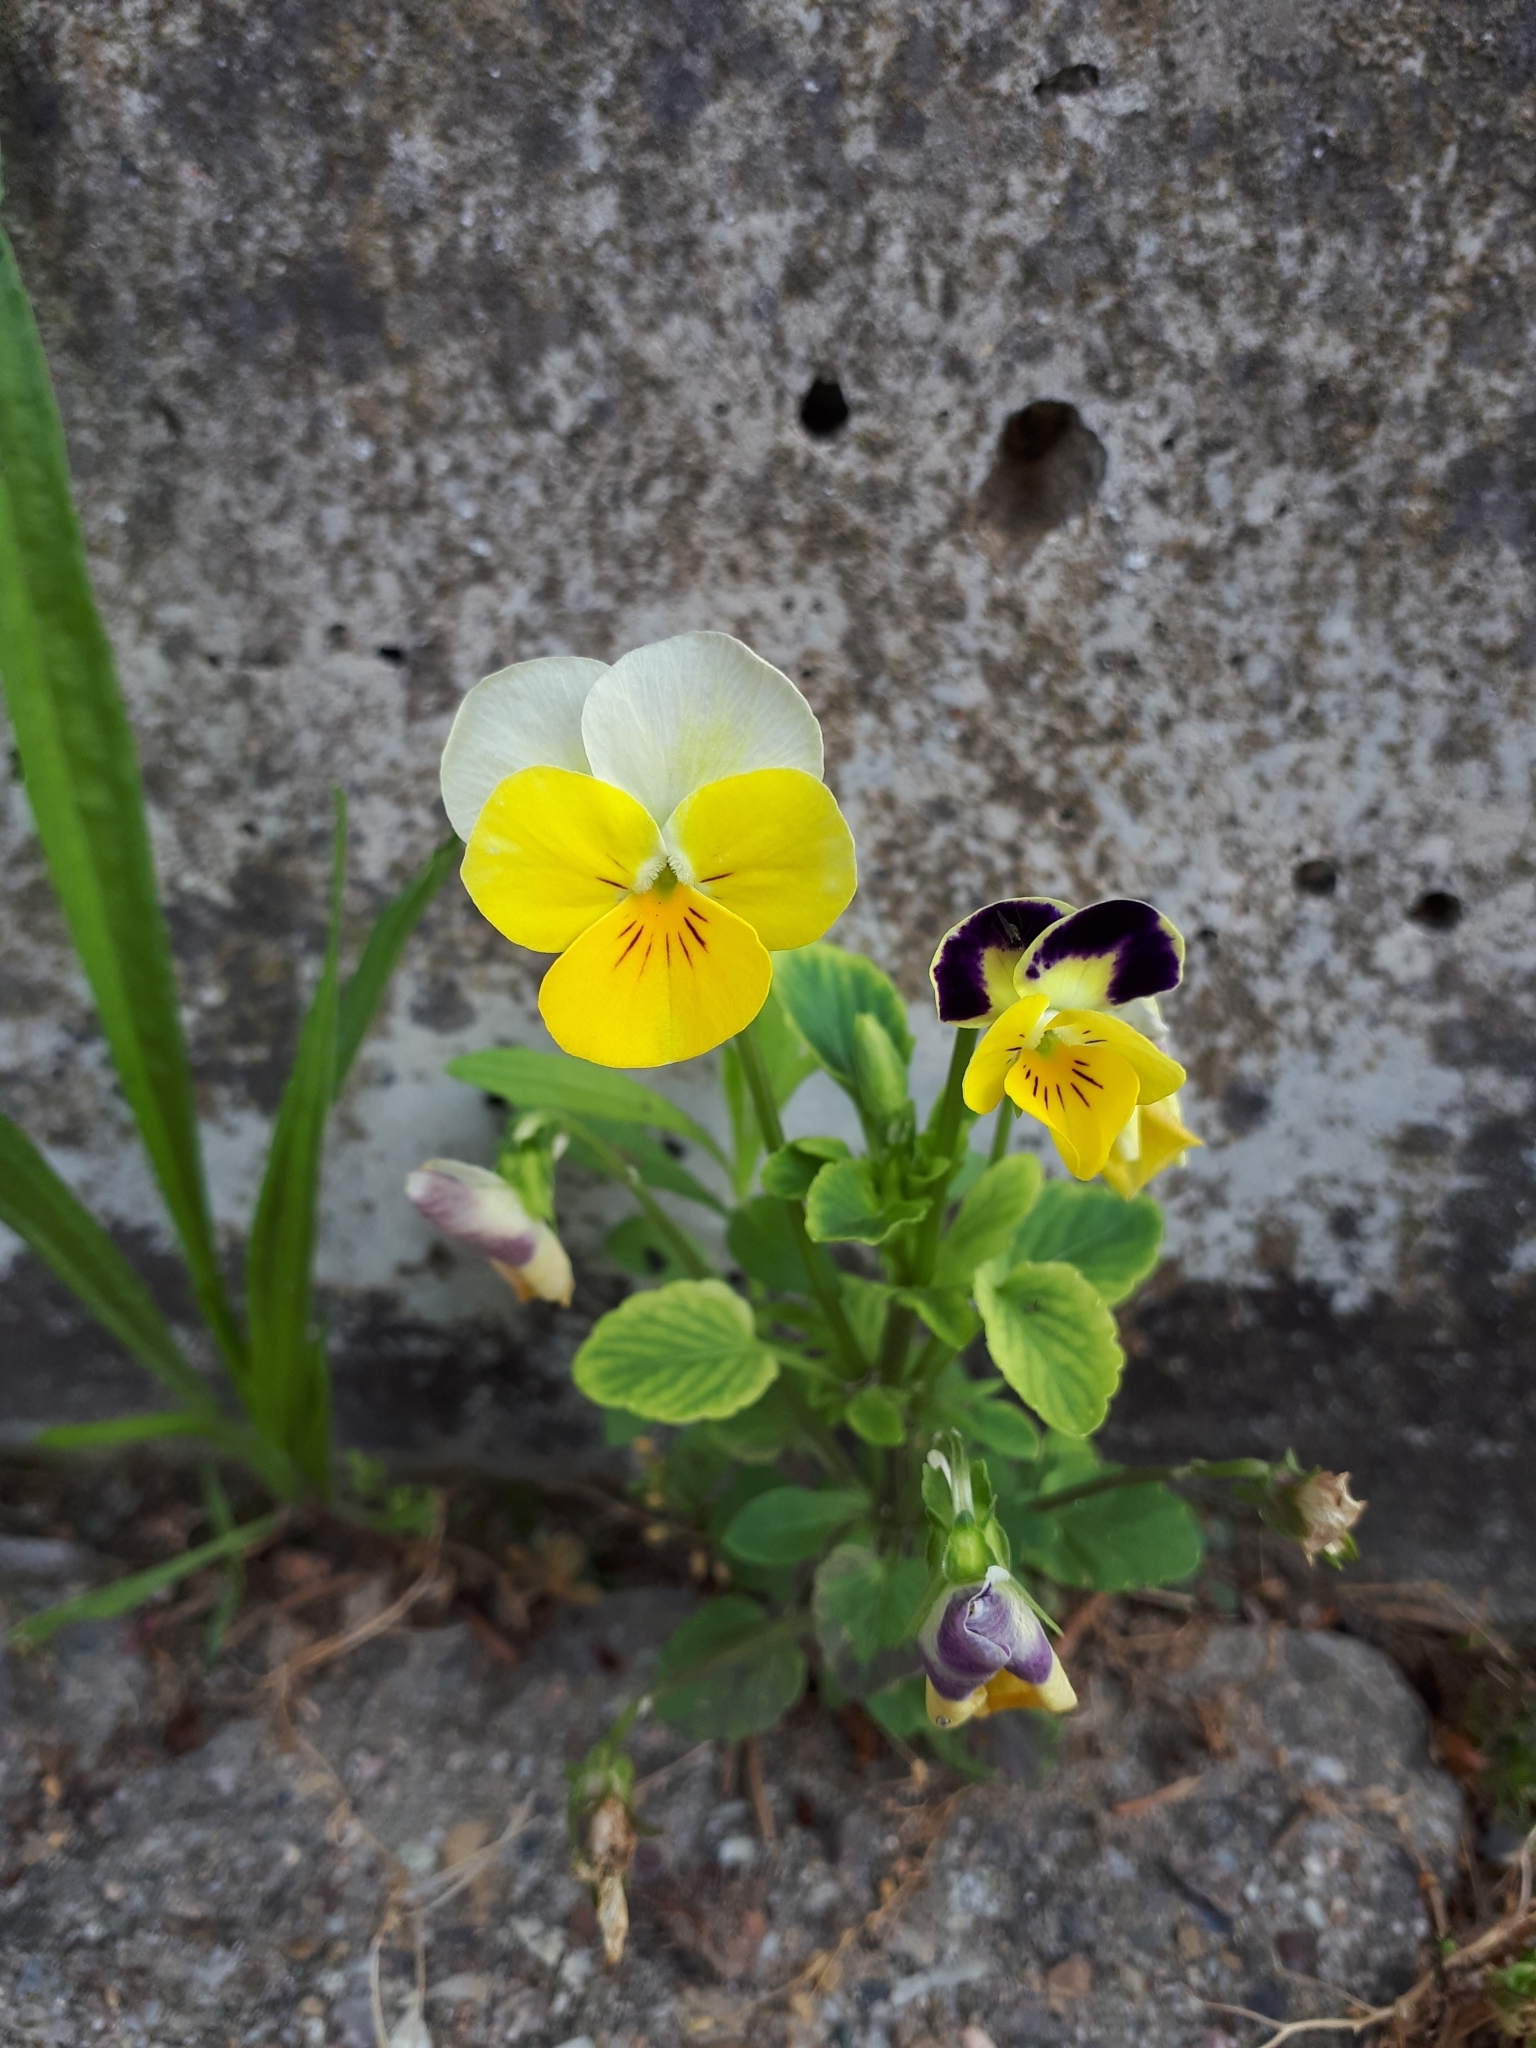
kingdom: Plantae
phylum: Tracheophyta
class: Magnoliopsida
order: Malpighiales
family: Violaceae
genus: Viola
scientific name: Viola wittrockiana
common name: Garden pansy
